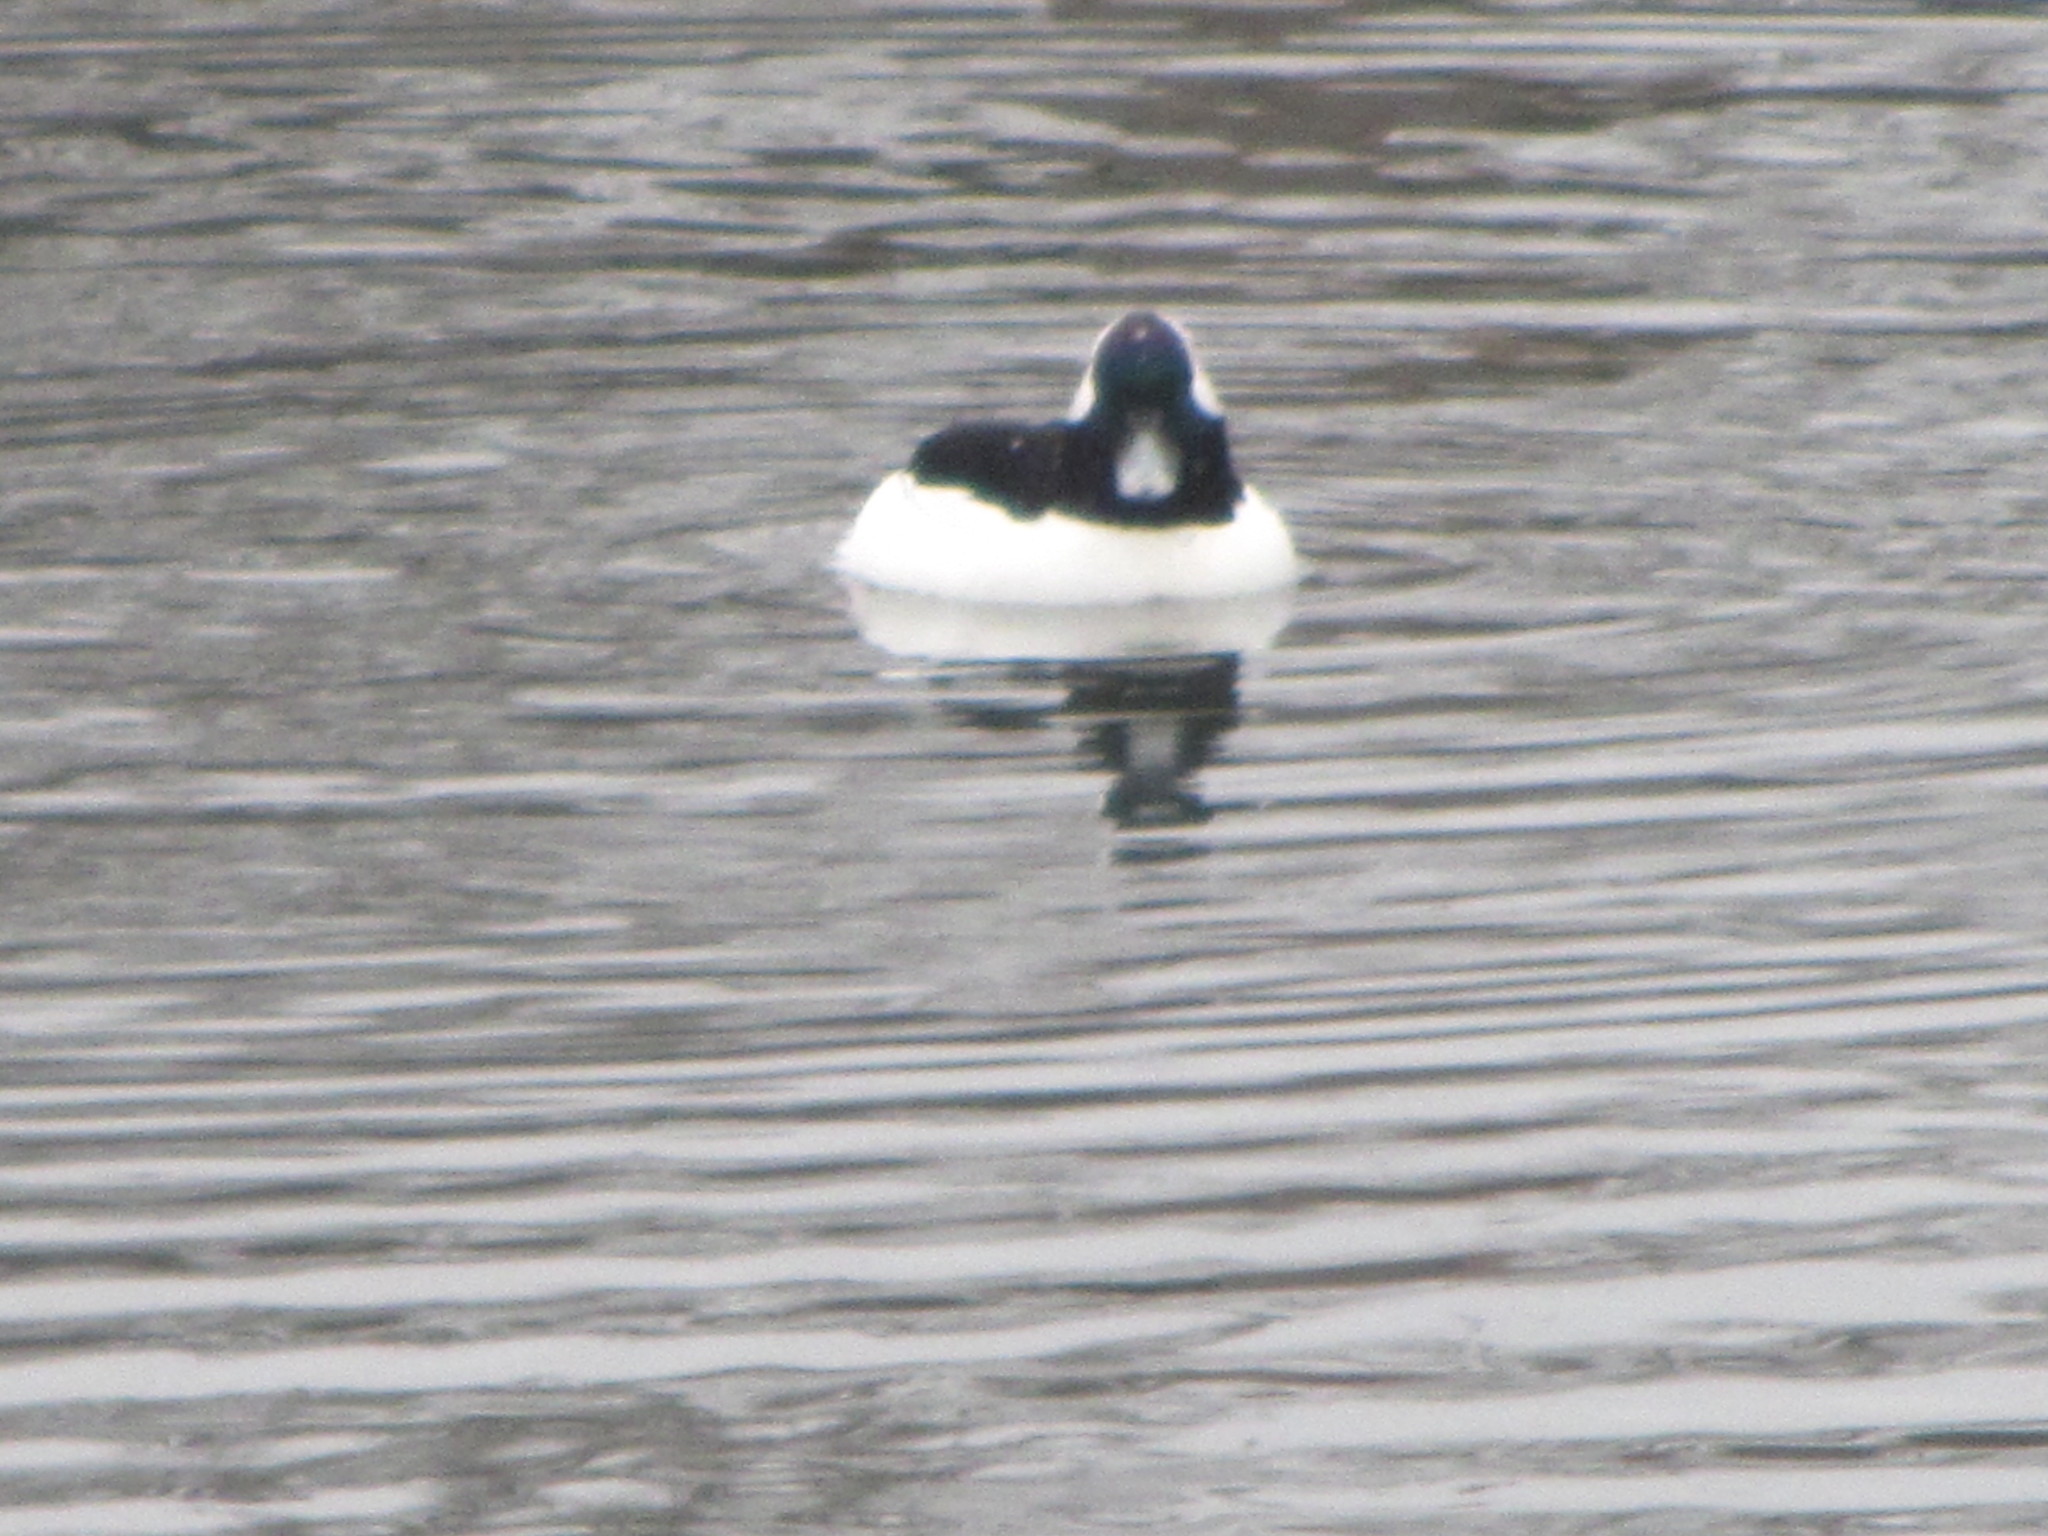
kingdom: Animalia
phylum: Chordata
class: Aves
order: Anseriformes
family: Anatidae
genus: Bucephala
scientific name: Bucephala albeola
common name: Bufflehead
